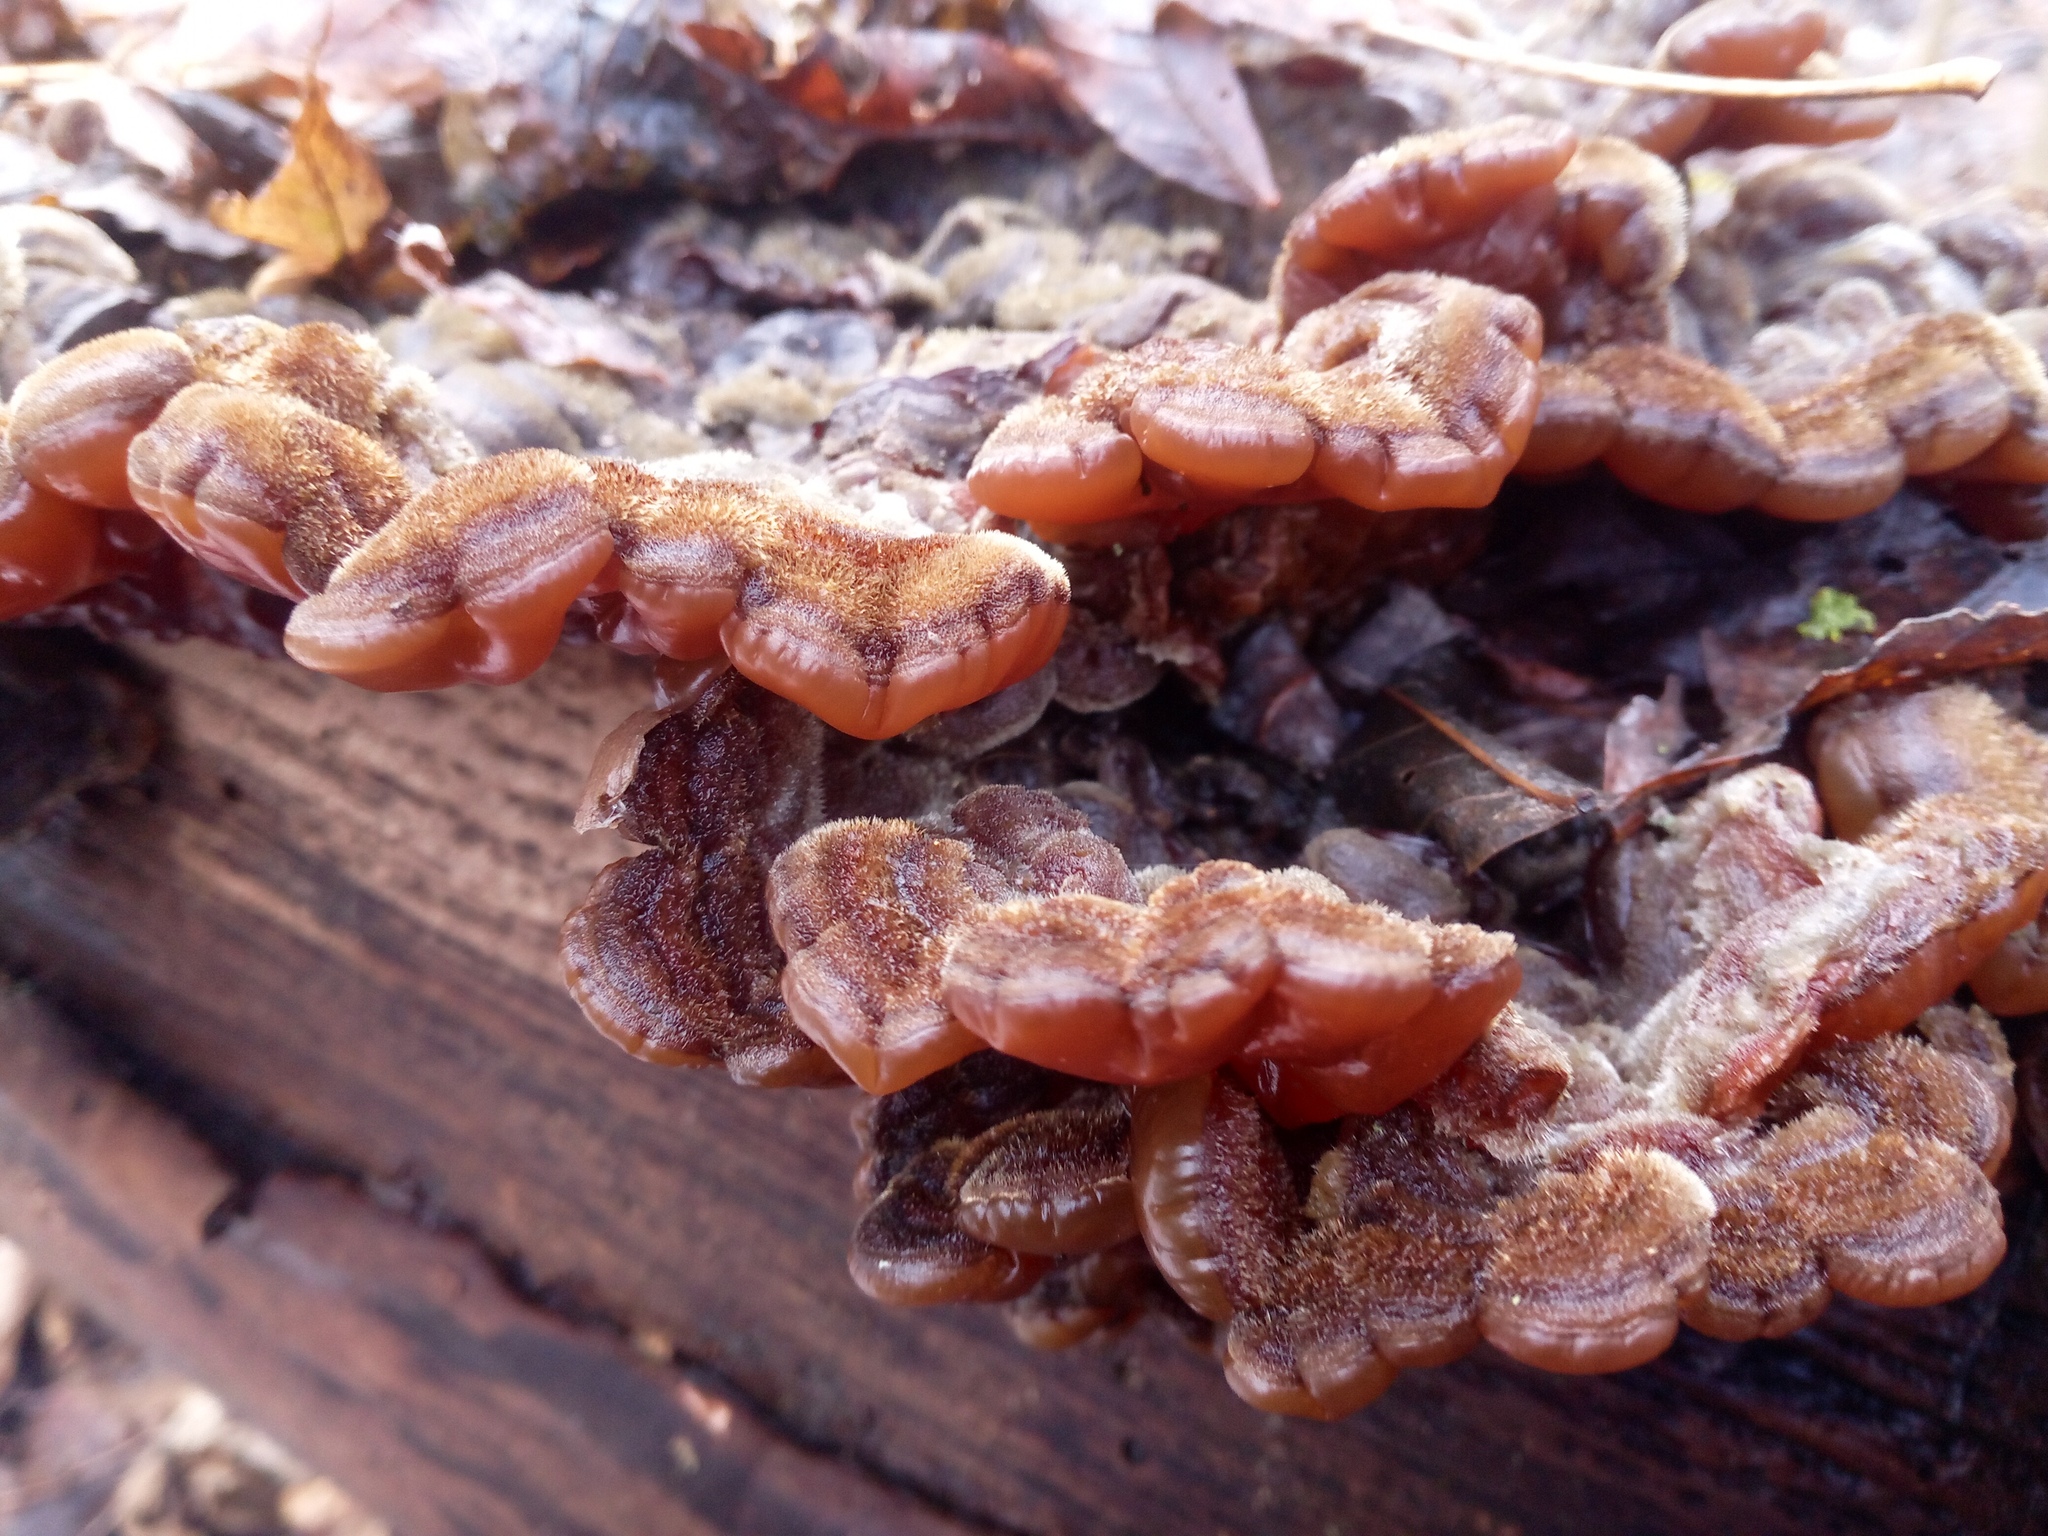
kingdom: Fungi
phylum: Basidiomycota
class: Agaricomycetes
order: Auriculariales
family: Auriculariaceae
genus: Auricularia
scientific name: Auricularia mesenterica
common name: Tripe fungus
